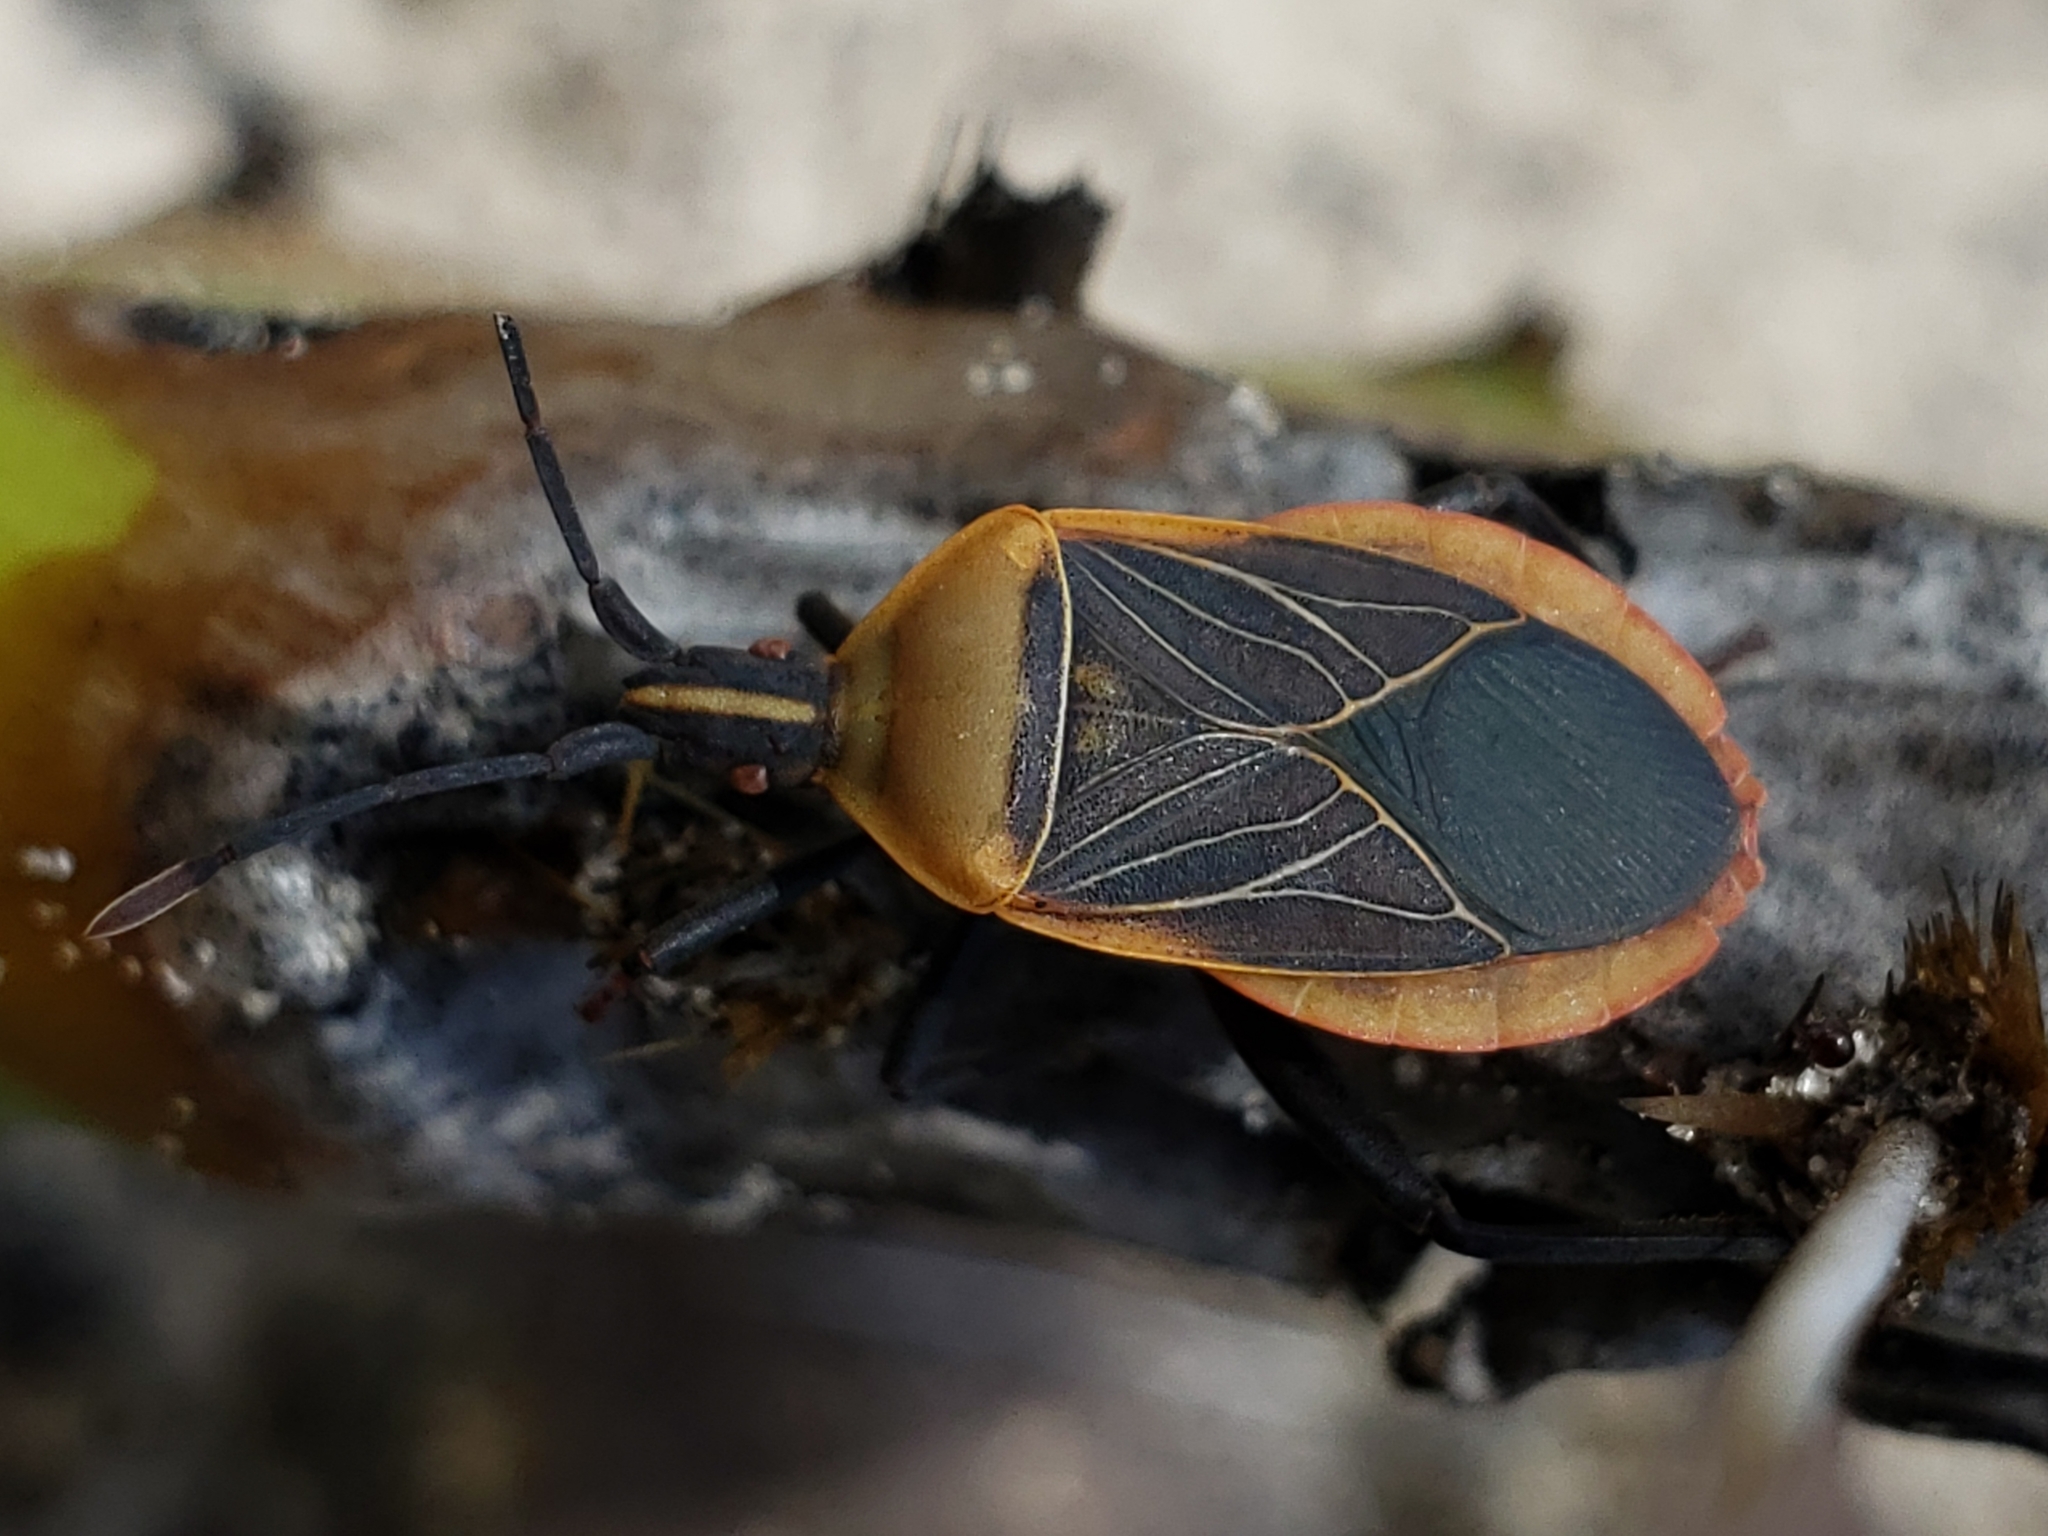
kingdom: Animalia
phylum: Arthropoda
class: Insecta
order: Hemiptera
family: Coreidae
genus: Chelinidea
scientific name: Chelinidea vittiger
